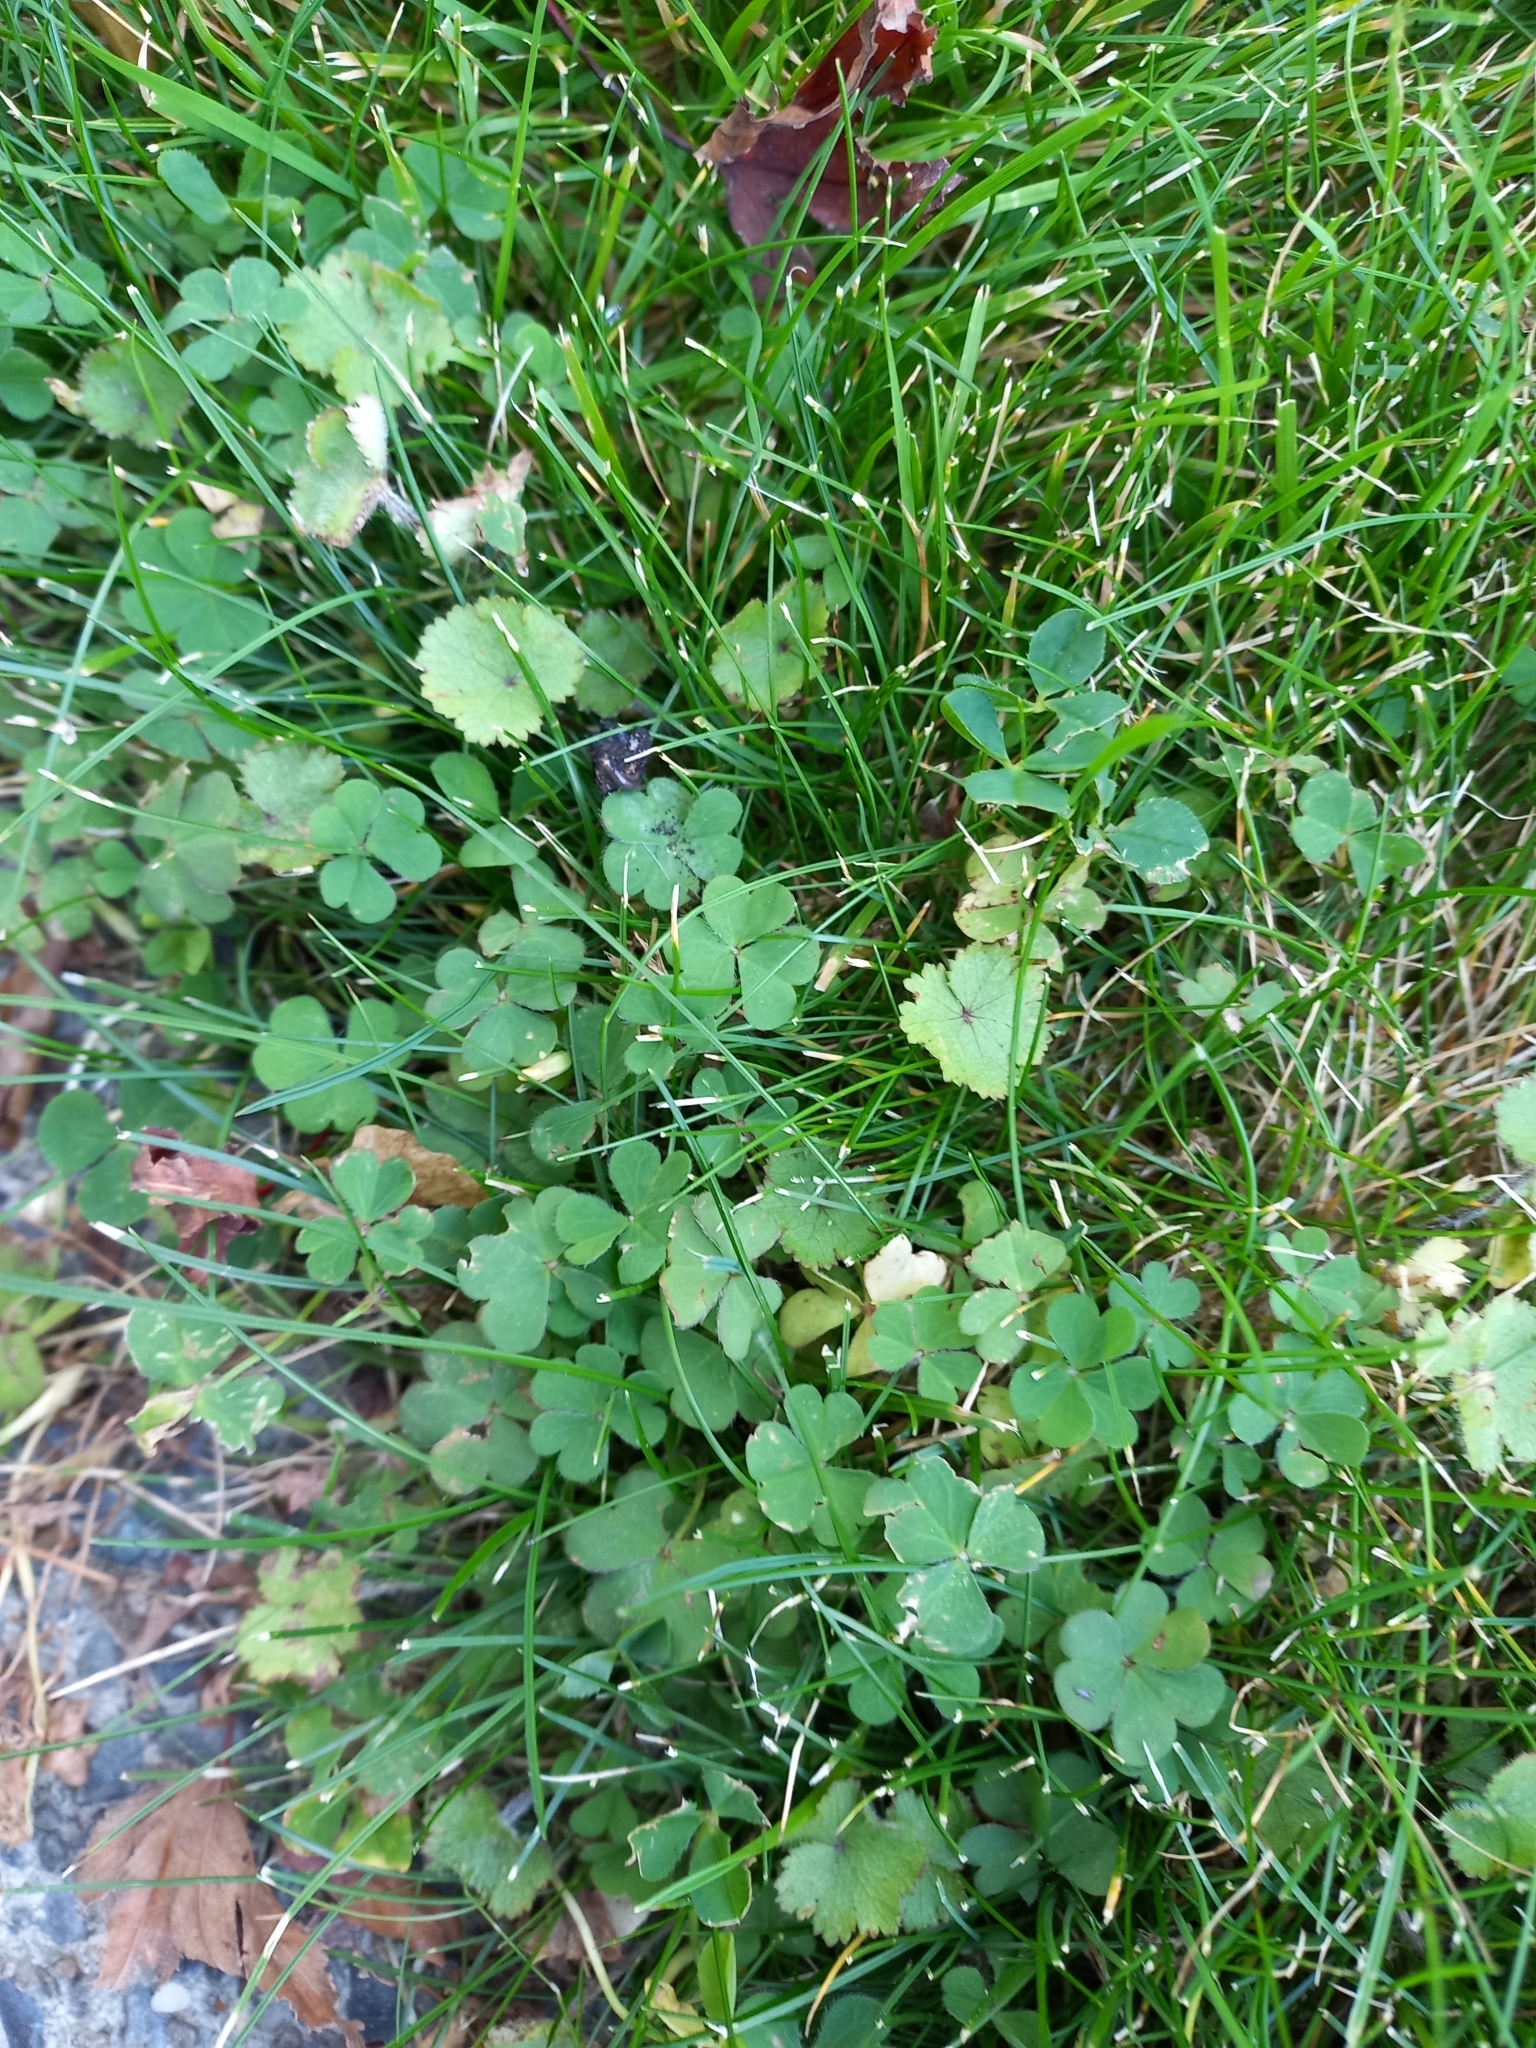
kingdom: Plantae
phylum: Tracheophyta
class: Magnoliopsida
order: Apiales
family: Araliaceae
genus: Hydrocotyle
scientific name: Hydrocotyle moschata
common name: Hairy pennywort
